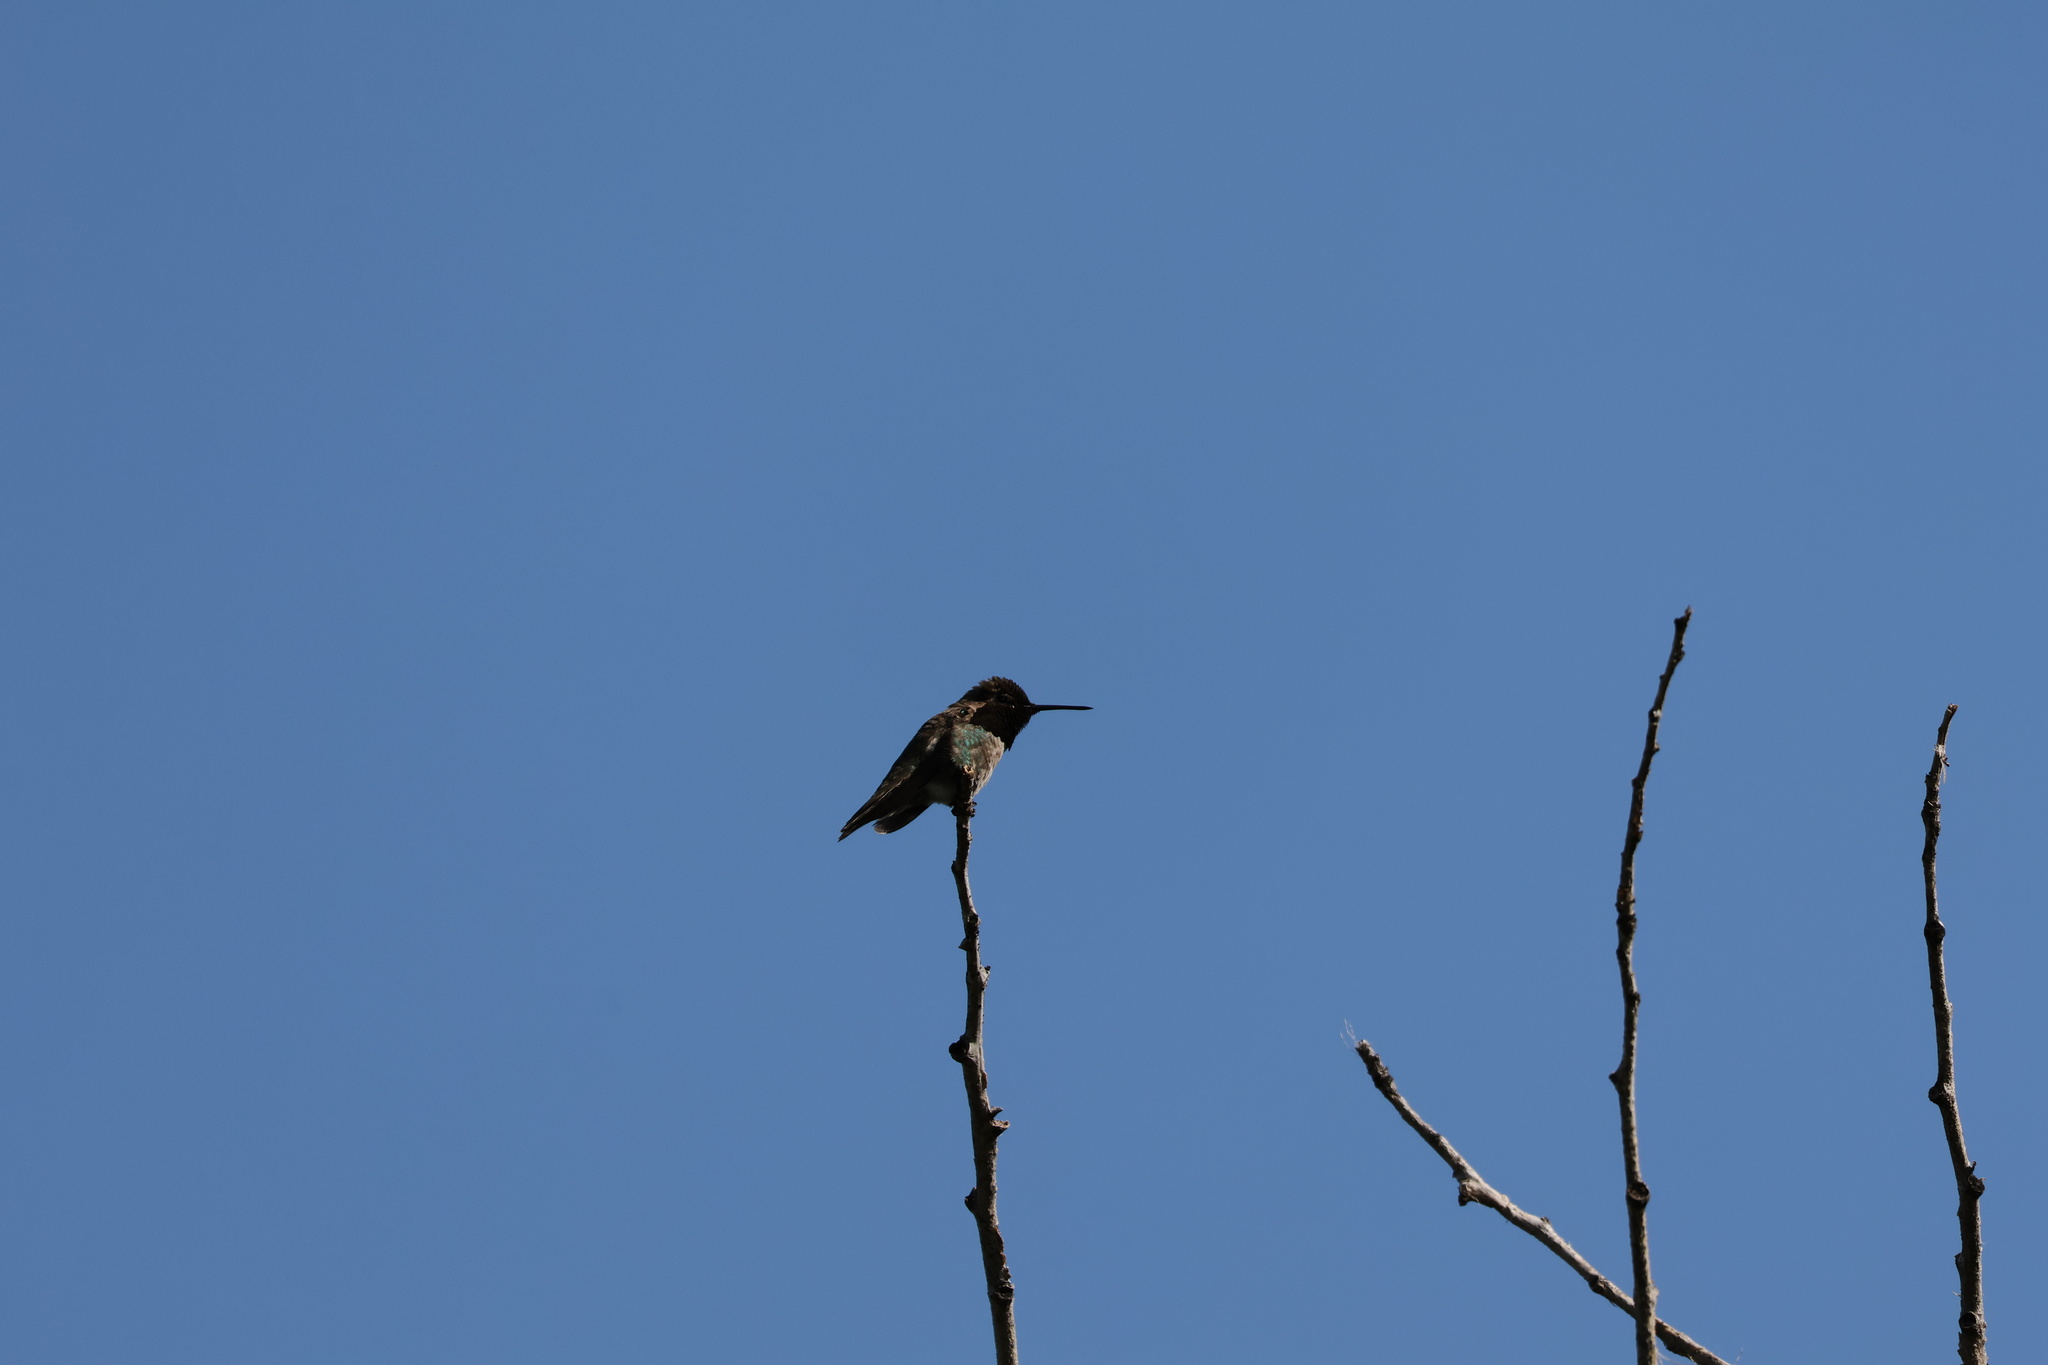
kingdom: Animalia
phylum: Chordata
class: Aves
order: Apodiformes
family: Trochilidae
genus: Calypte
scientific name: Calypte anna
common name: Anna's hummingbird
